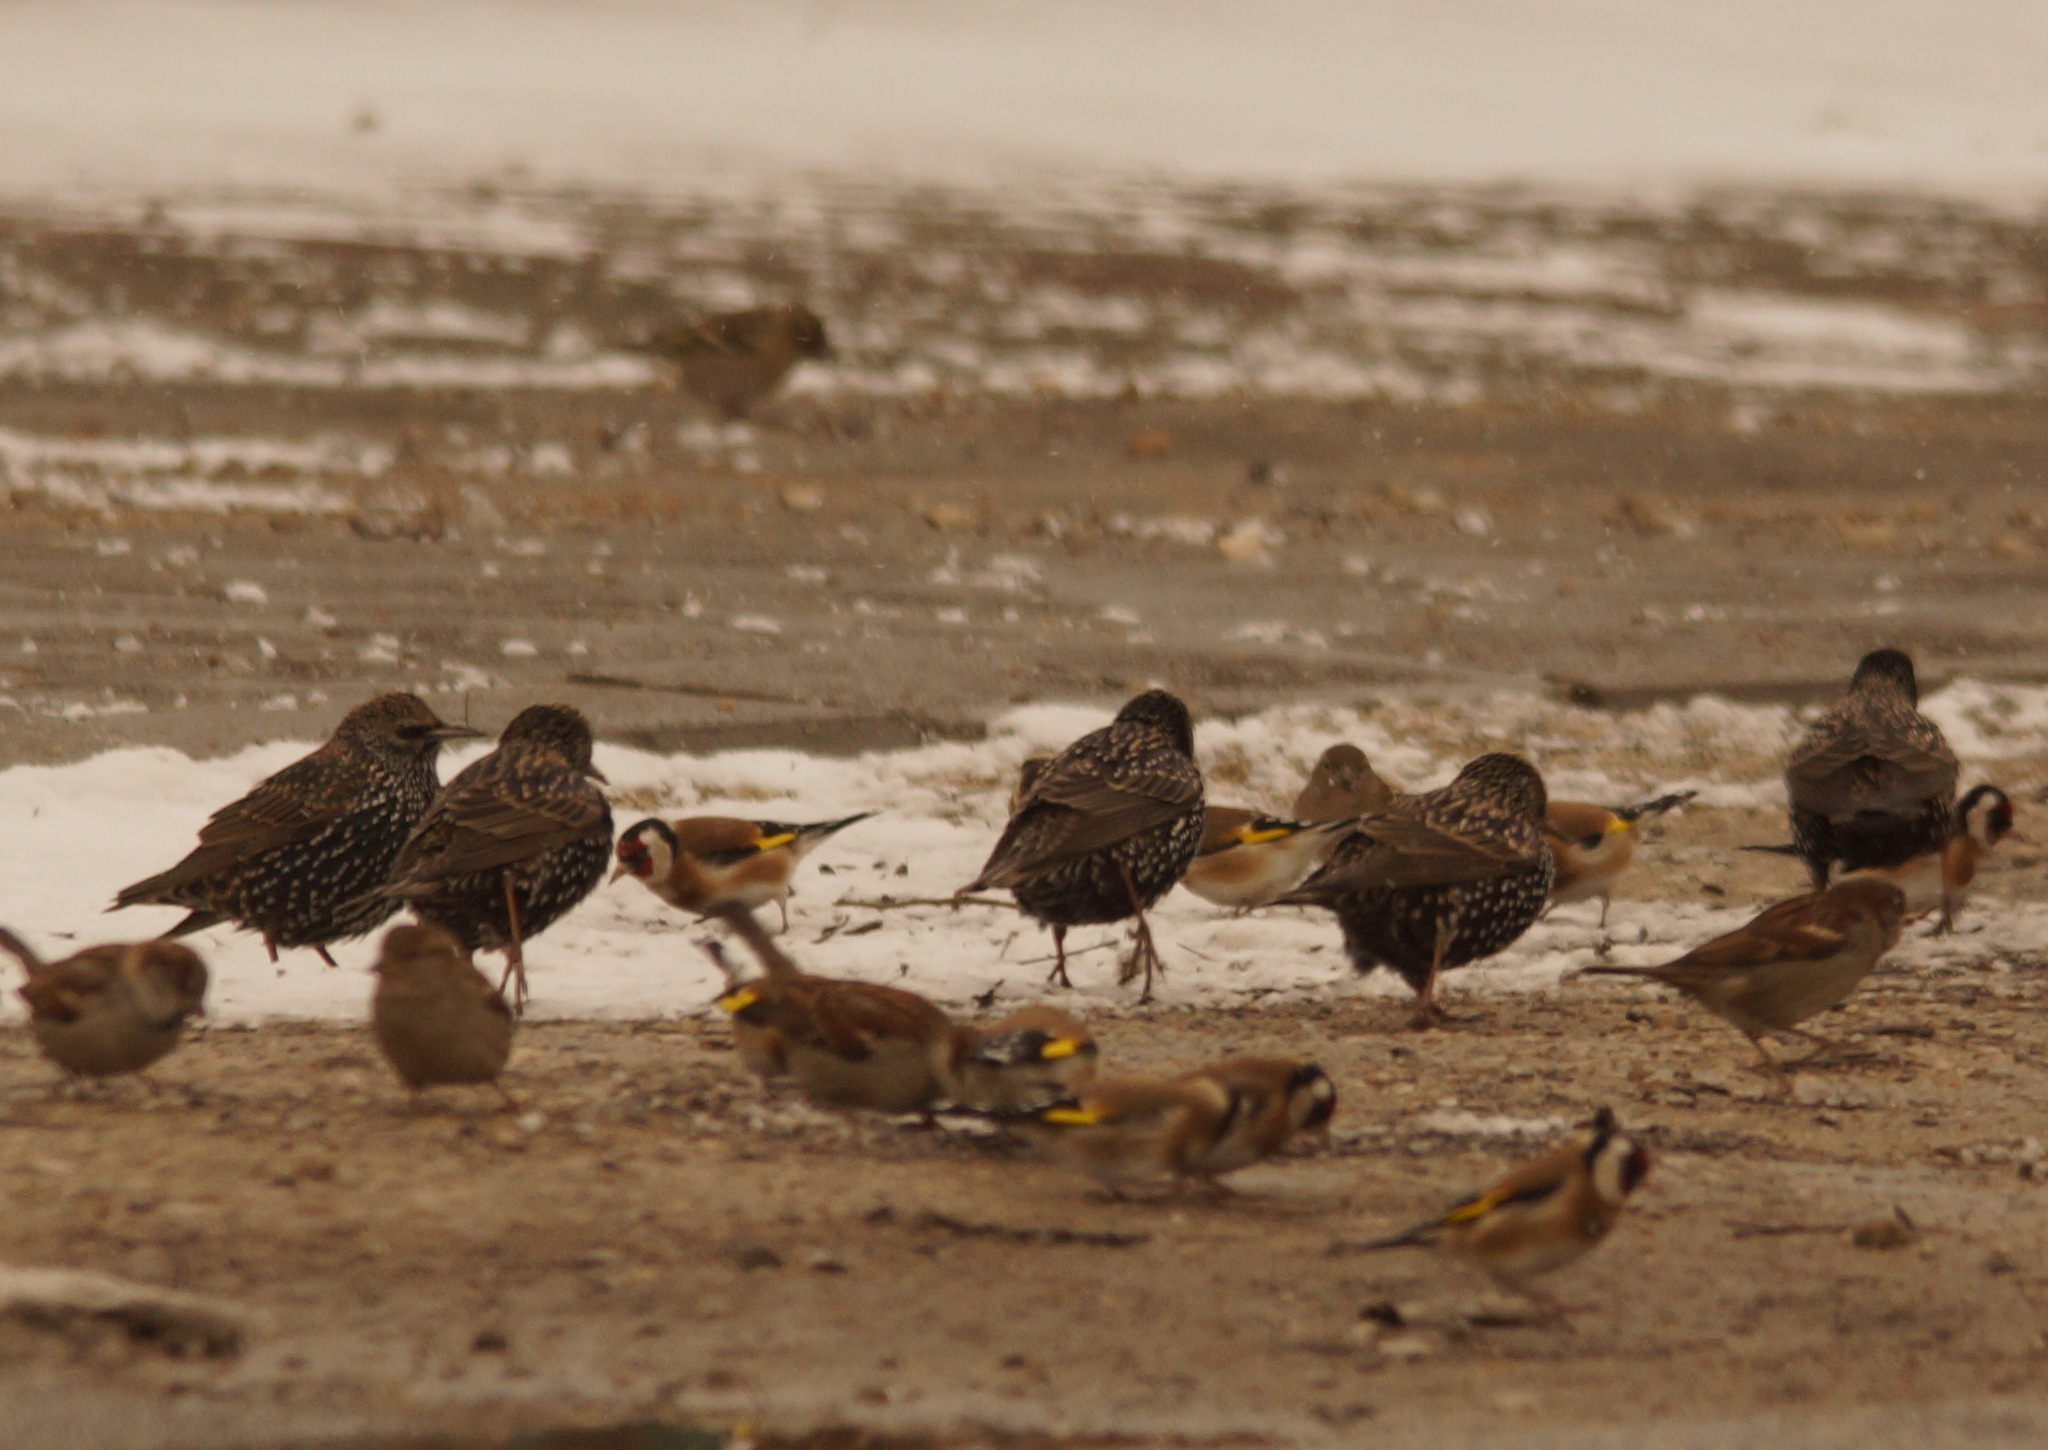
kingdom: Animalia
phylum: Chordata
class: Aves
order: Passeriformes
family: Sturnidae
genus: Sturnus
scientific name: Sturnus vulgaris
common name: Common starling
